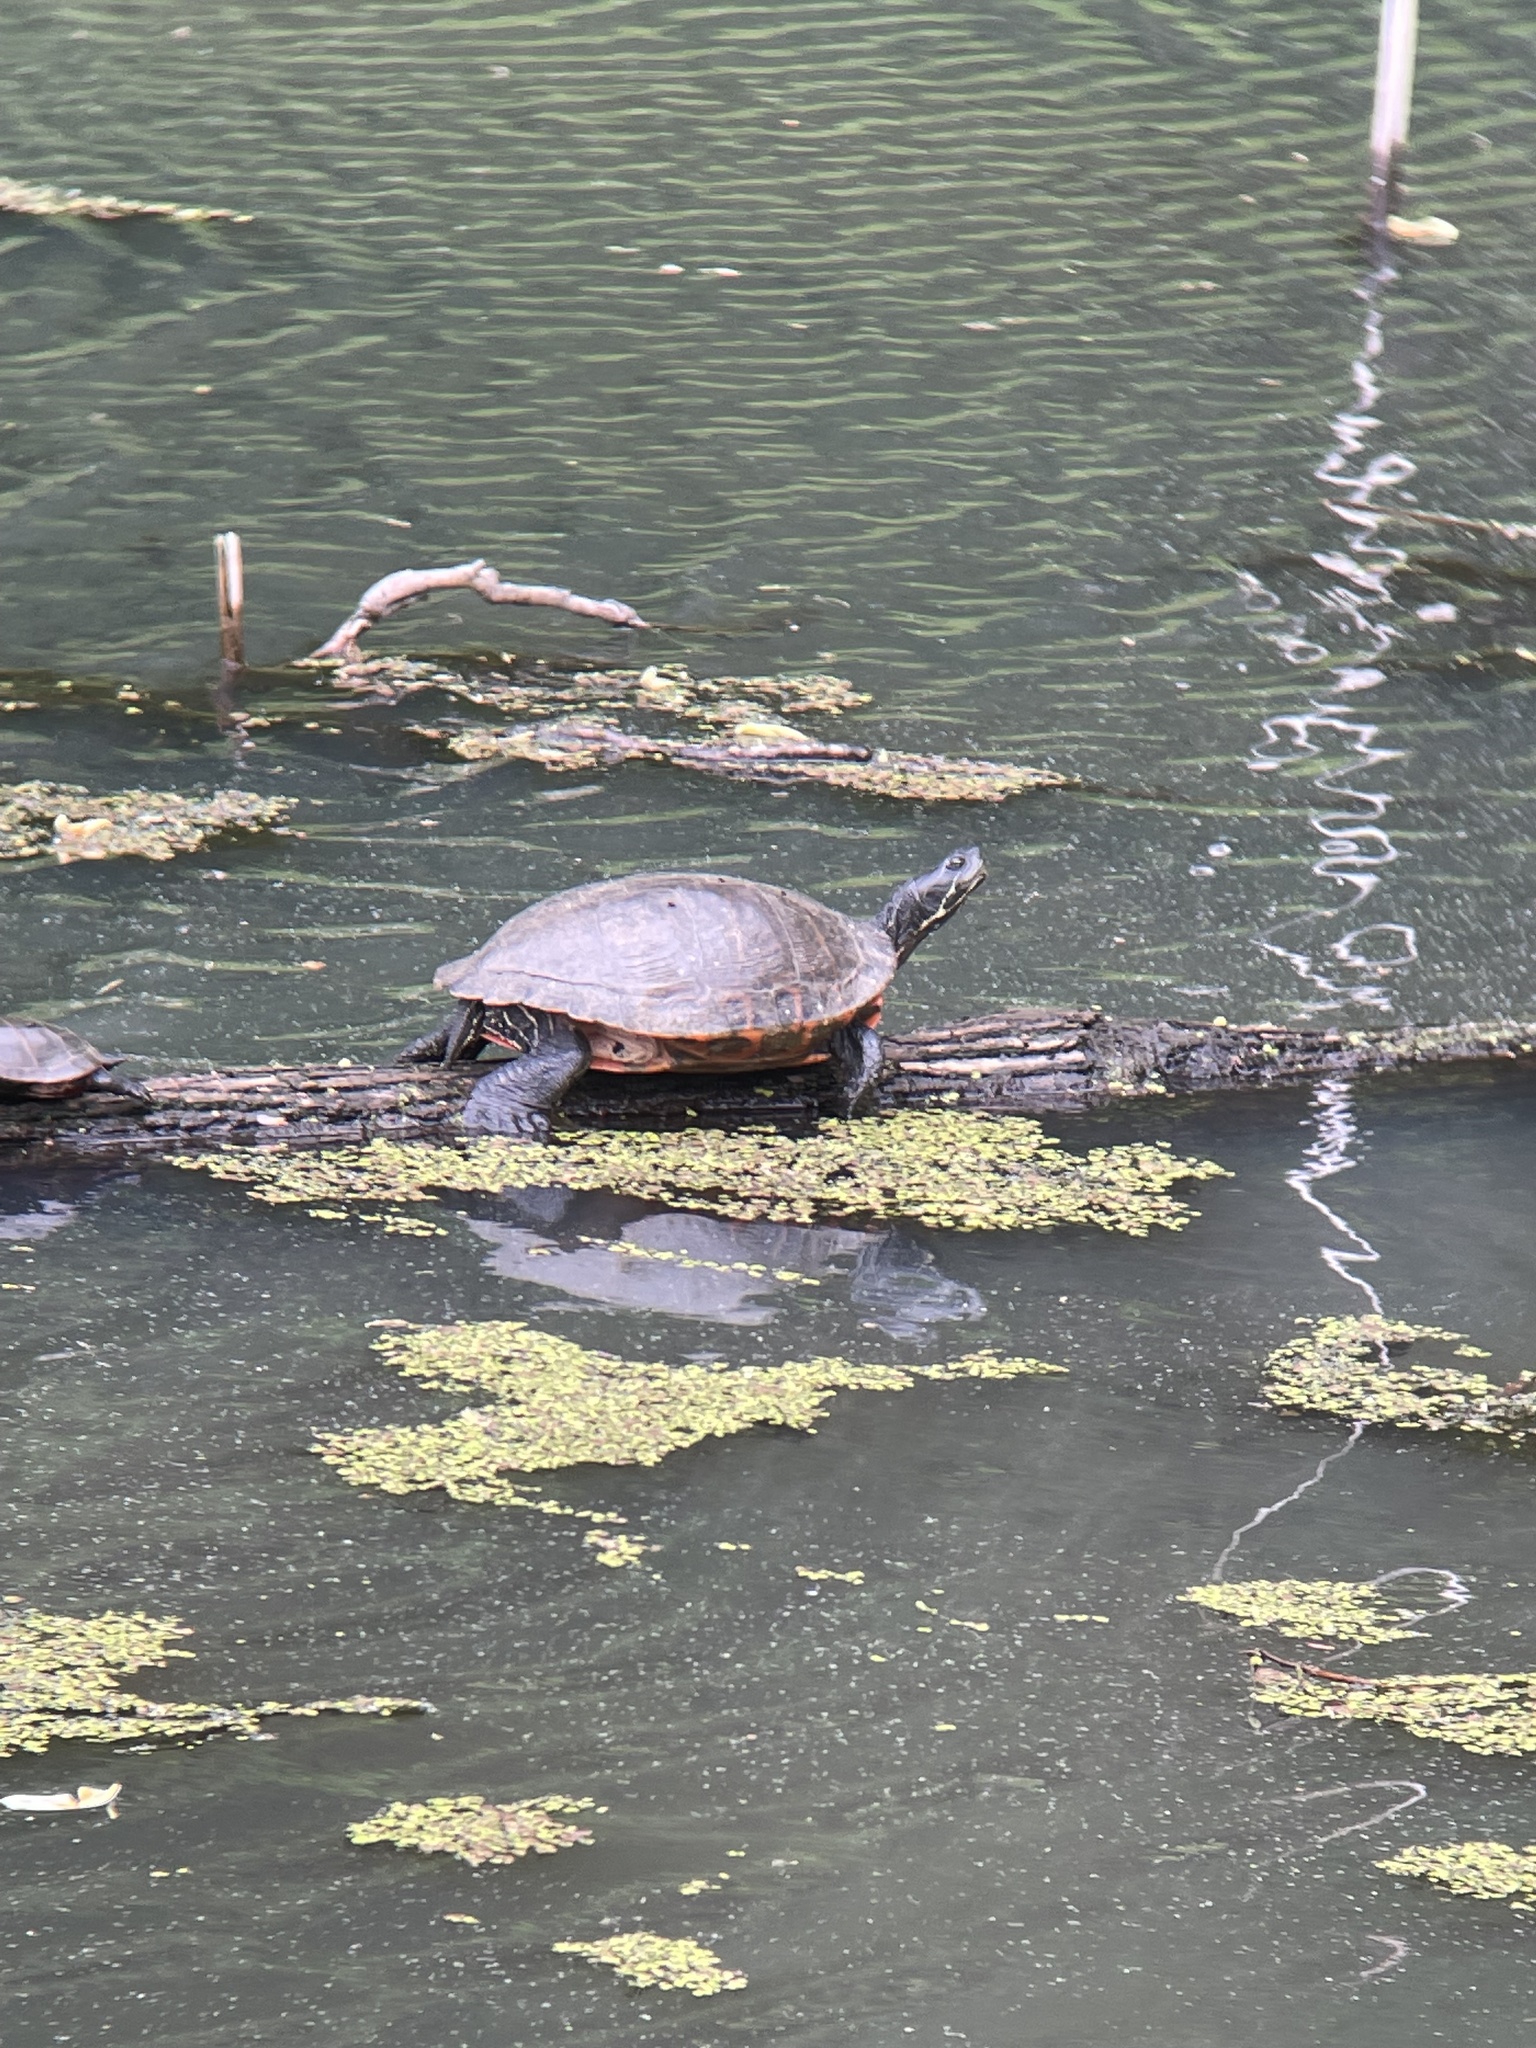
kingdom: Animalia
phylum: Chordata
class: Testudines
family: Emydidae
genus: Pseudemys
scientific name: Pseudemys rubriventris
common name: American red-bellied turtle
